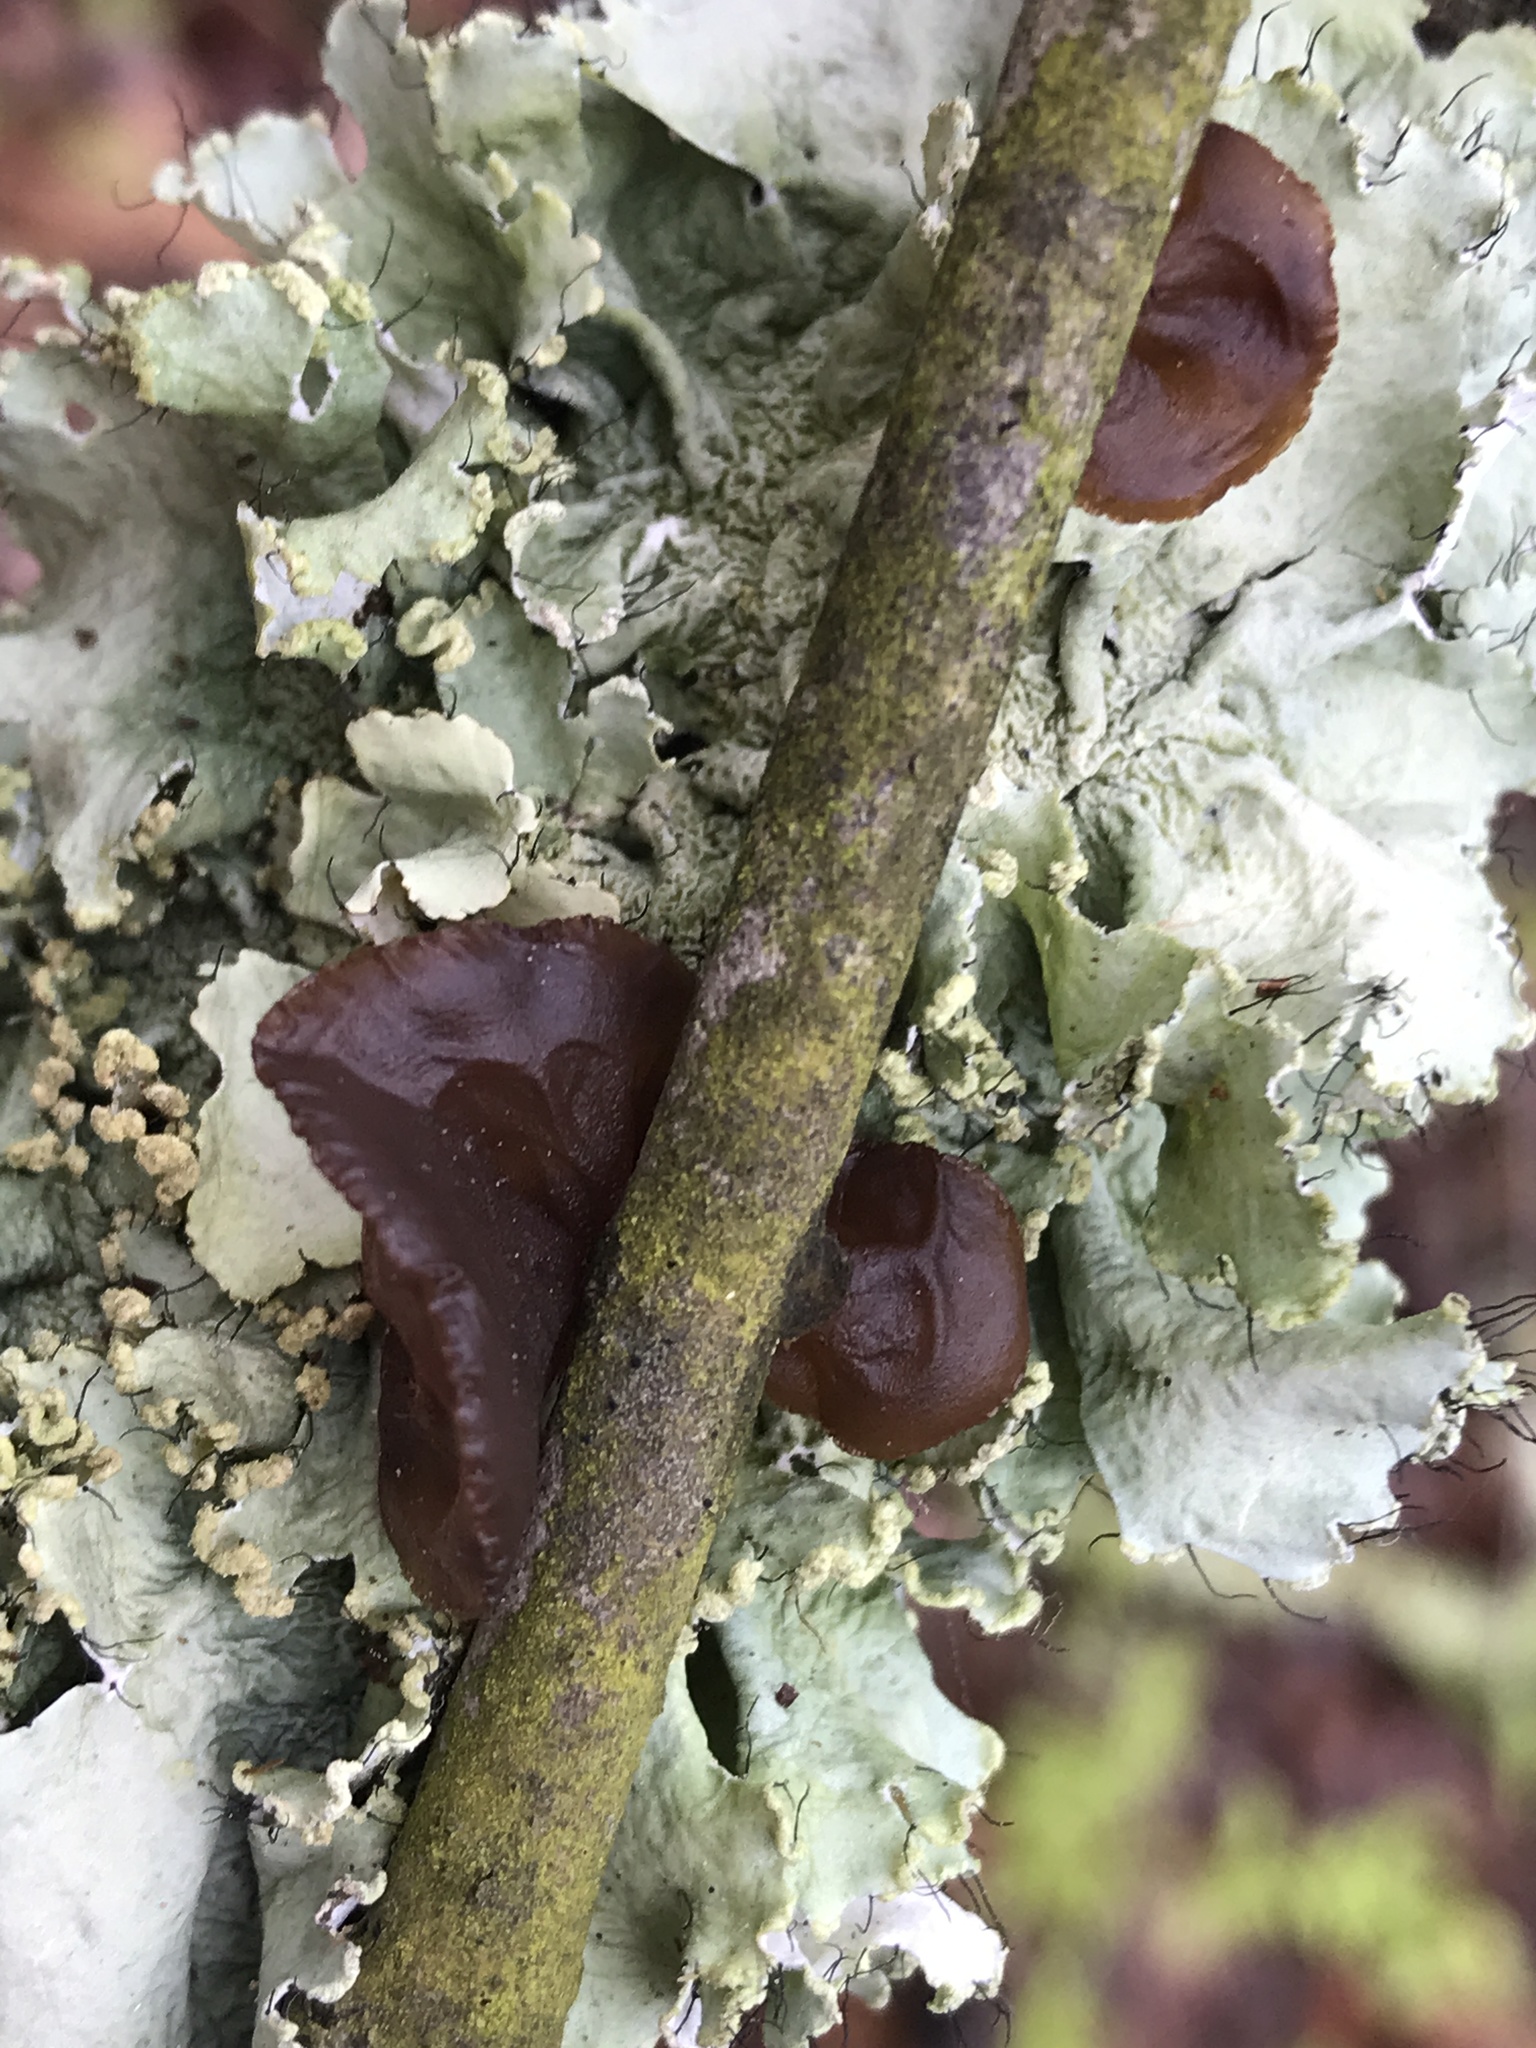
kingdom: Fungi
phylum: Basidiomycota
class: Agaricomycetes
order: Auriculariales
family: Auriculariaceae
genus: Exidia
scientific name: Exidia
